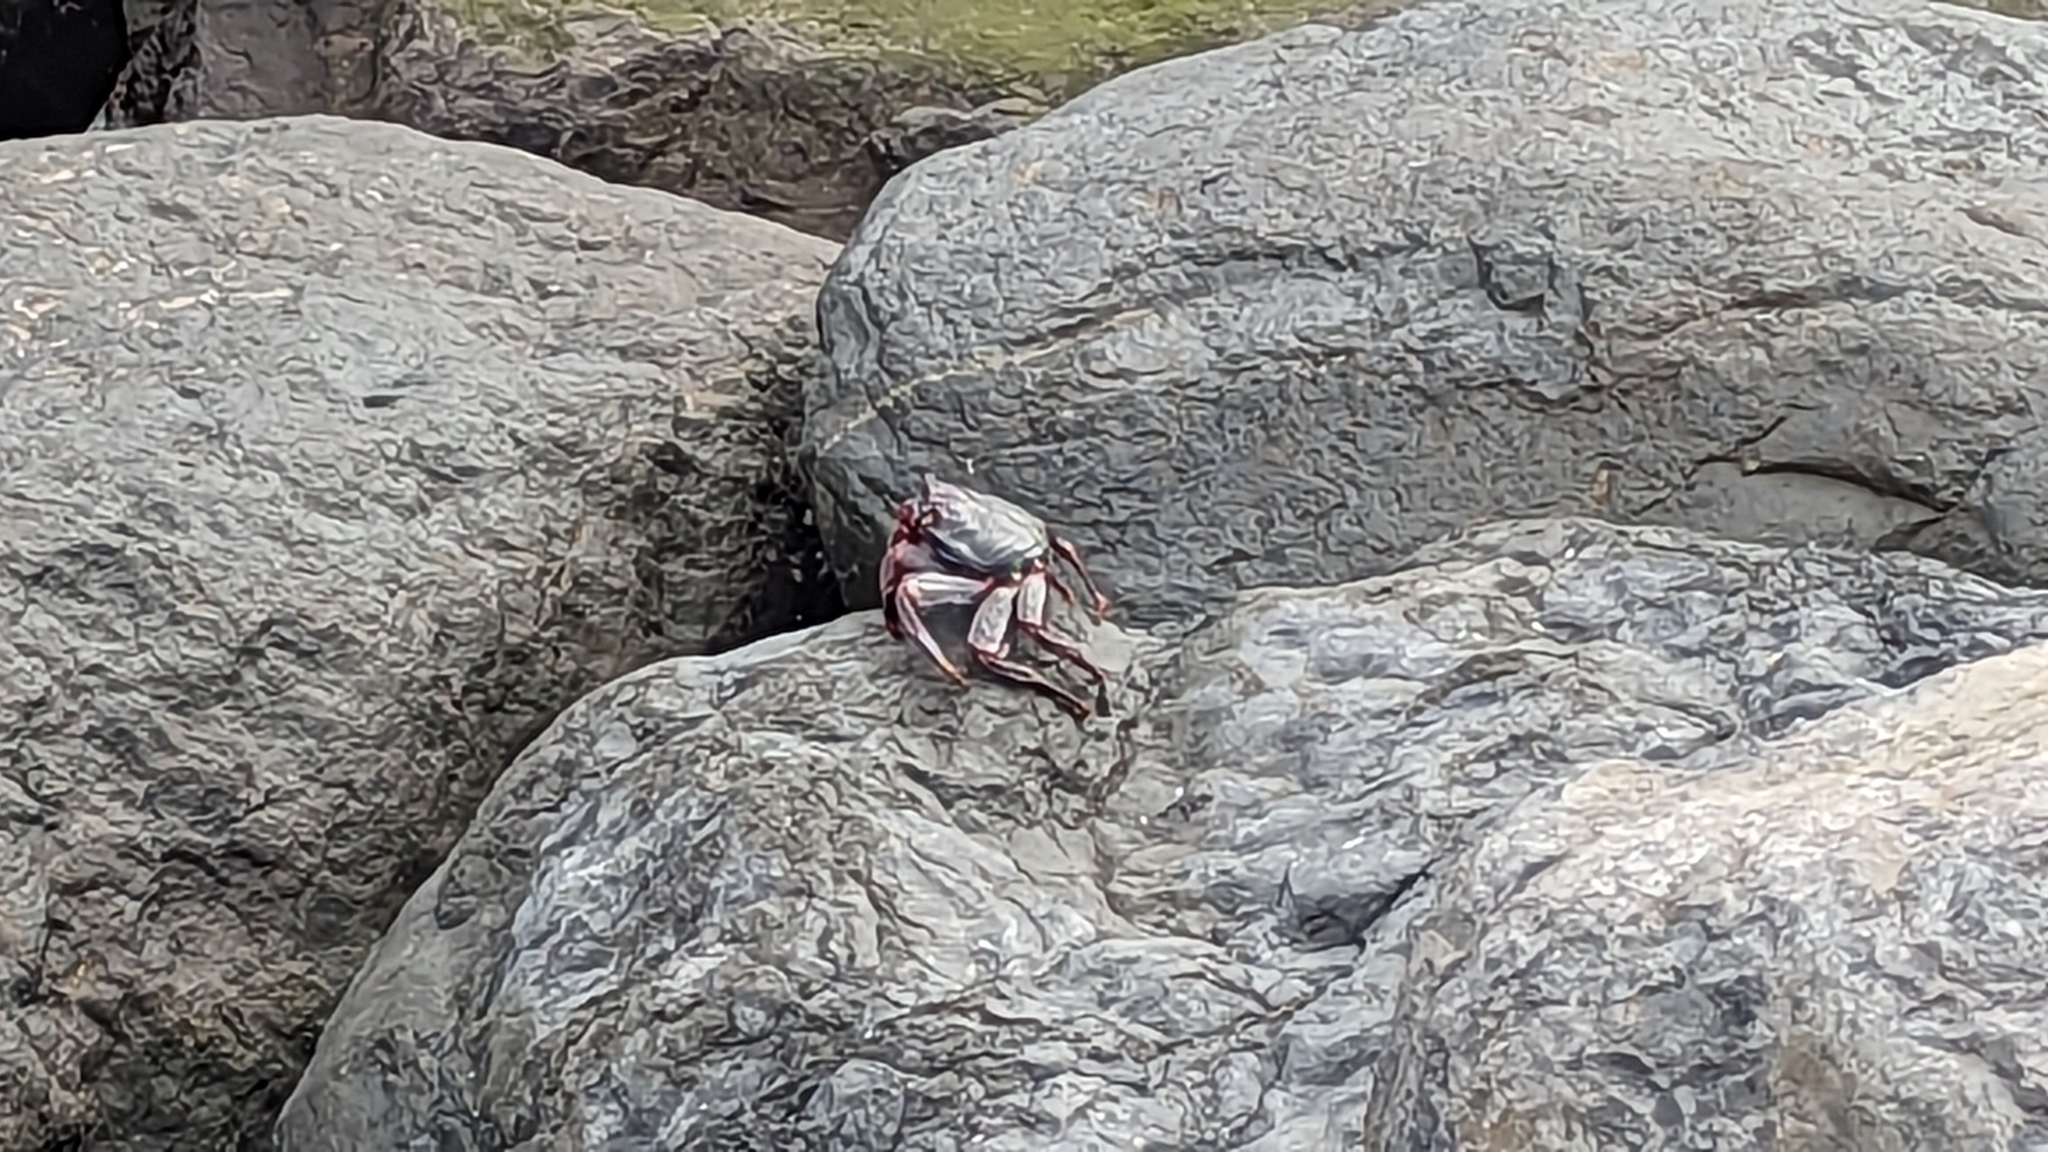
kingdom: Animalia
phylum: Arthropoda
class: Malacostraca
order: Decapoda
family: Grapsidae
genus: Grapsus
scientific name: Grapsus adscensionis
